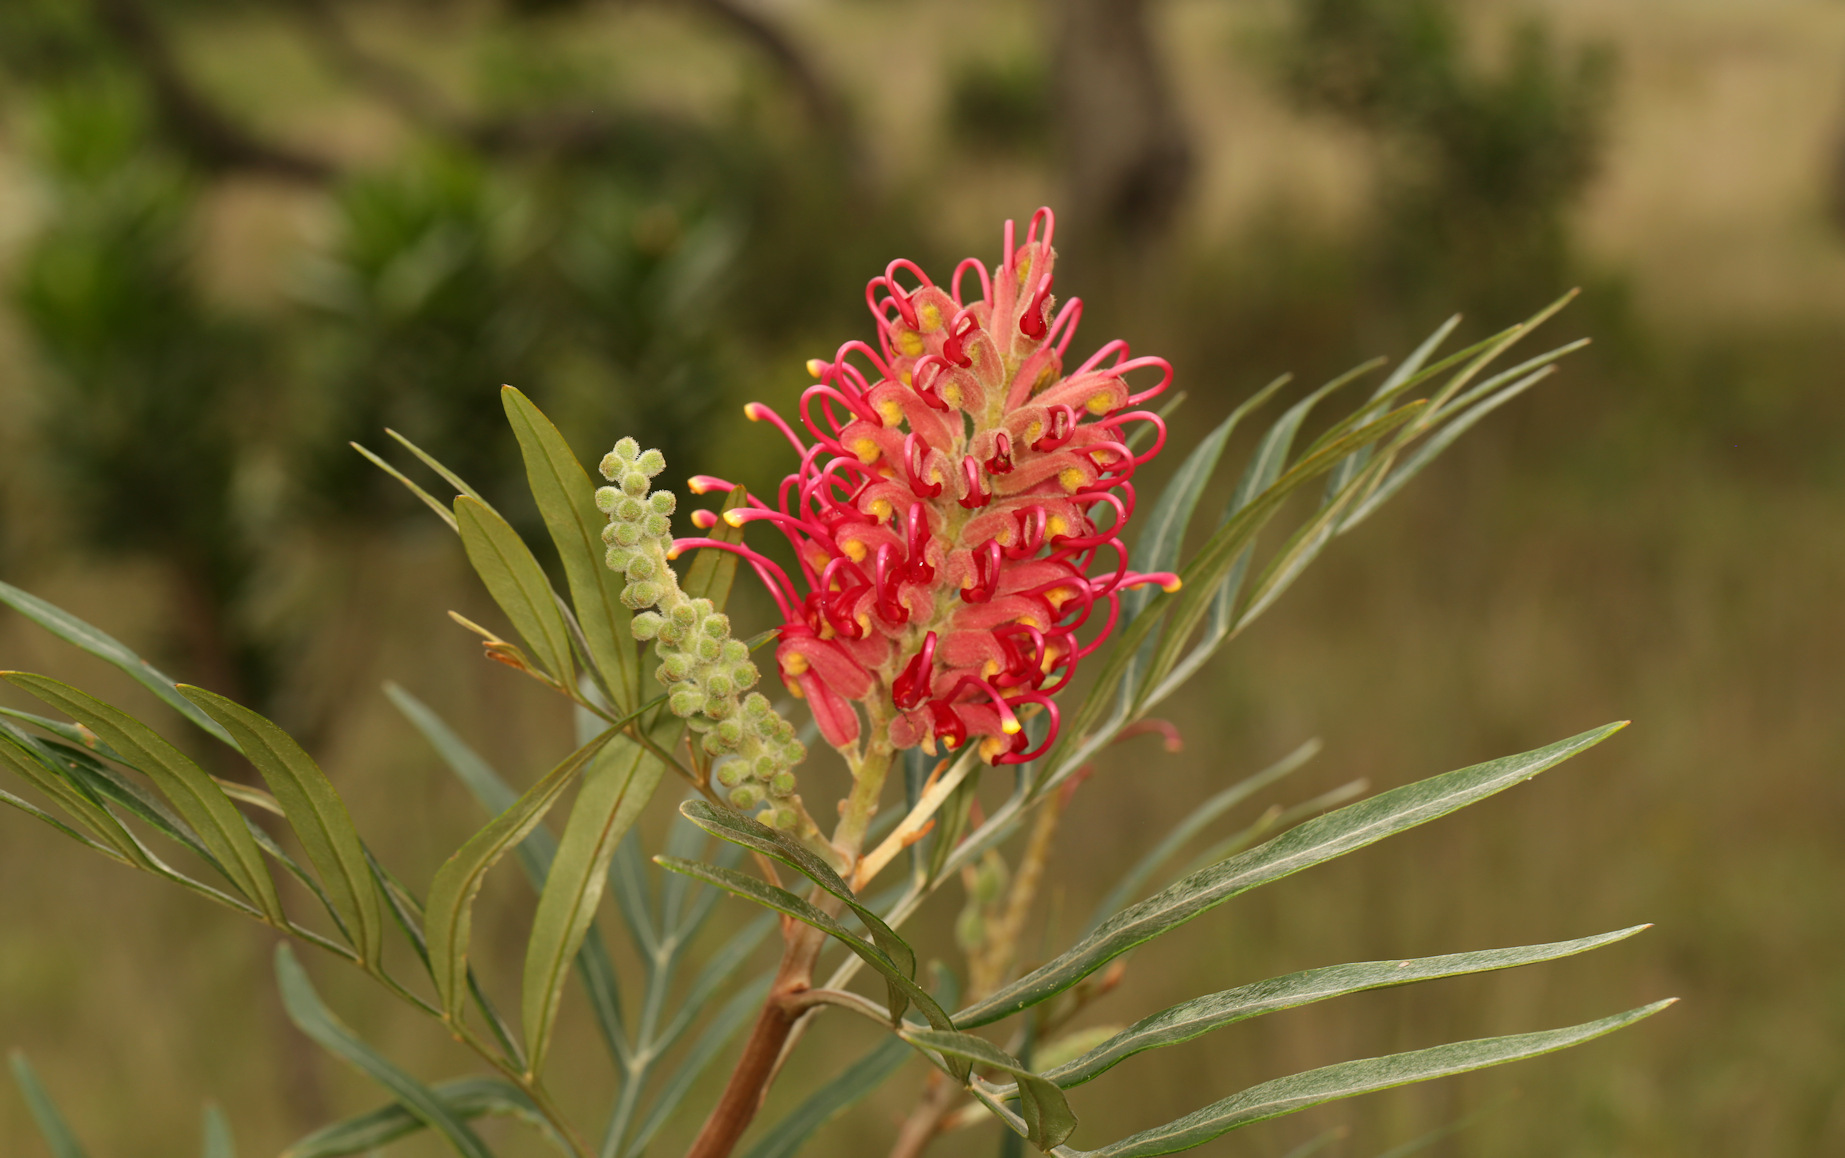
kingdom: Plantae
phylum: Tracheophyta
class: Magnoliopsida
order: Proteales
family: Proteaceae
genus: Grevillea
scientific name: Grevillea banksii
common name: Kahili flower
